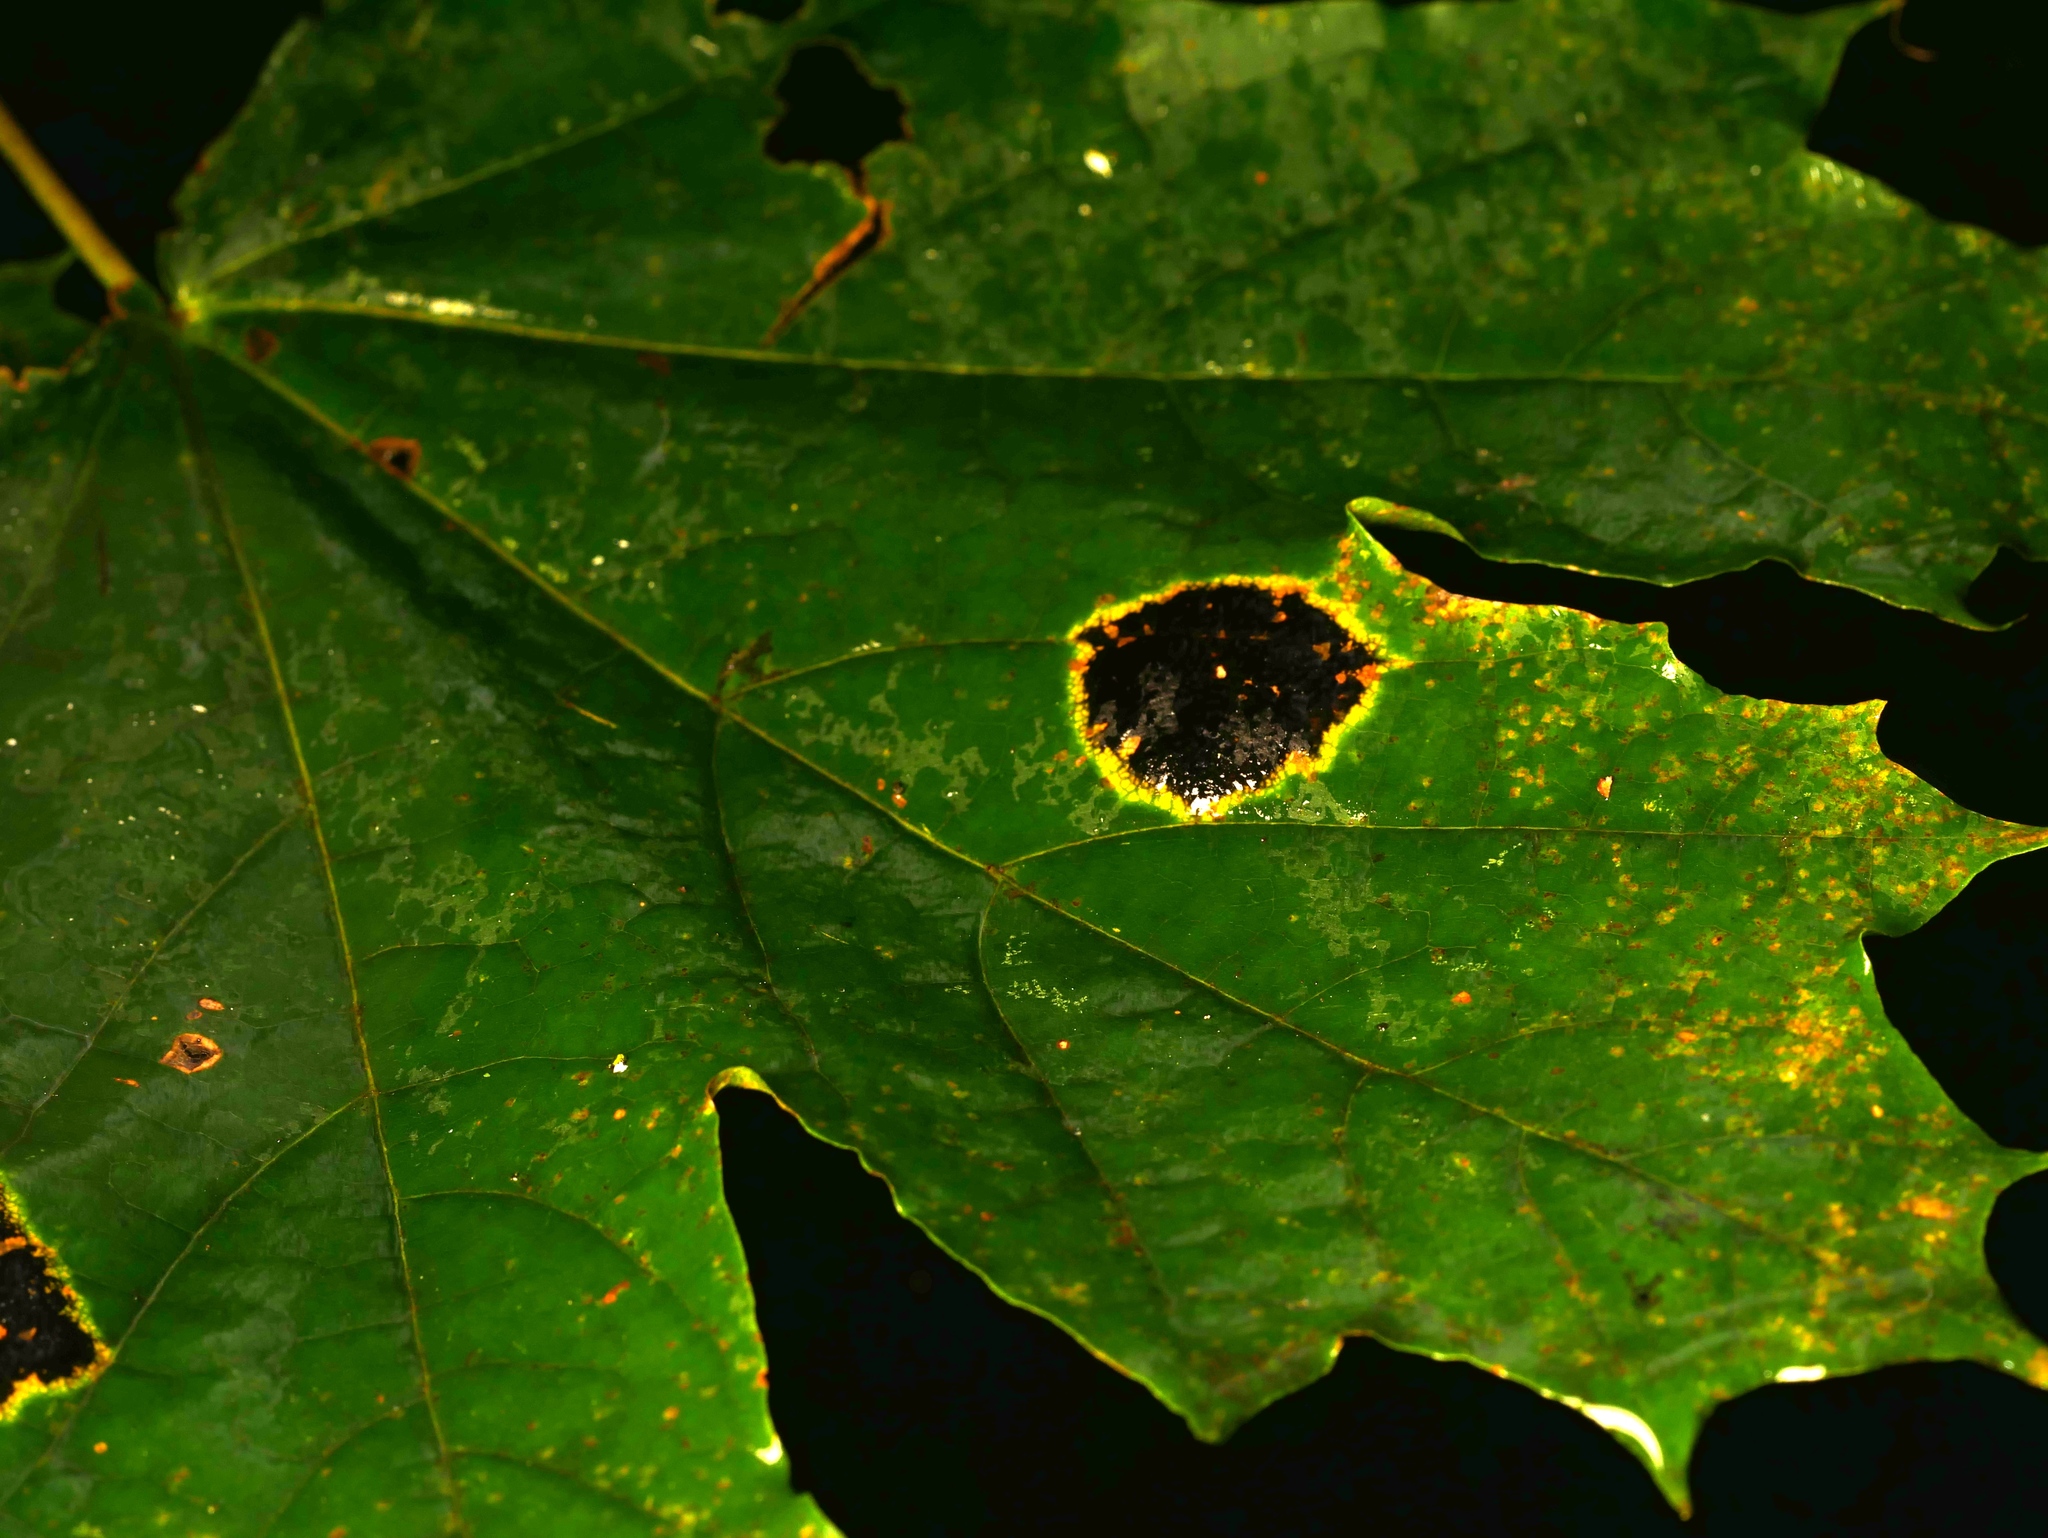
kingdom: Fungi
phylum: Ascomycota
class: Leotiomycetes
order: Rhytismatales
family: Rhytismataceae
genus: Rhytisma
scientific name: Rhytisma acerinum
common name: European tar spot
